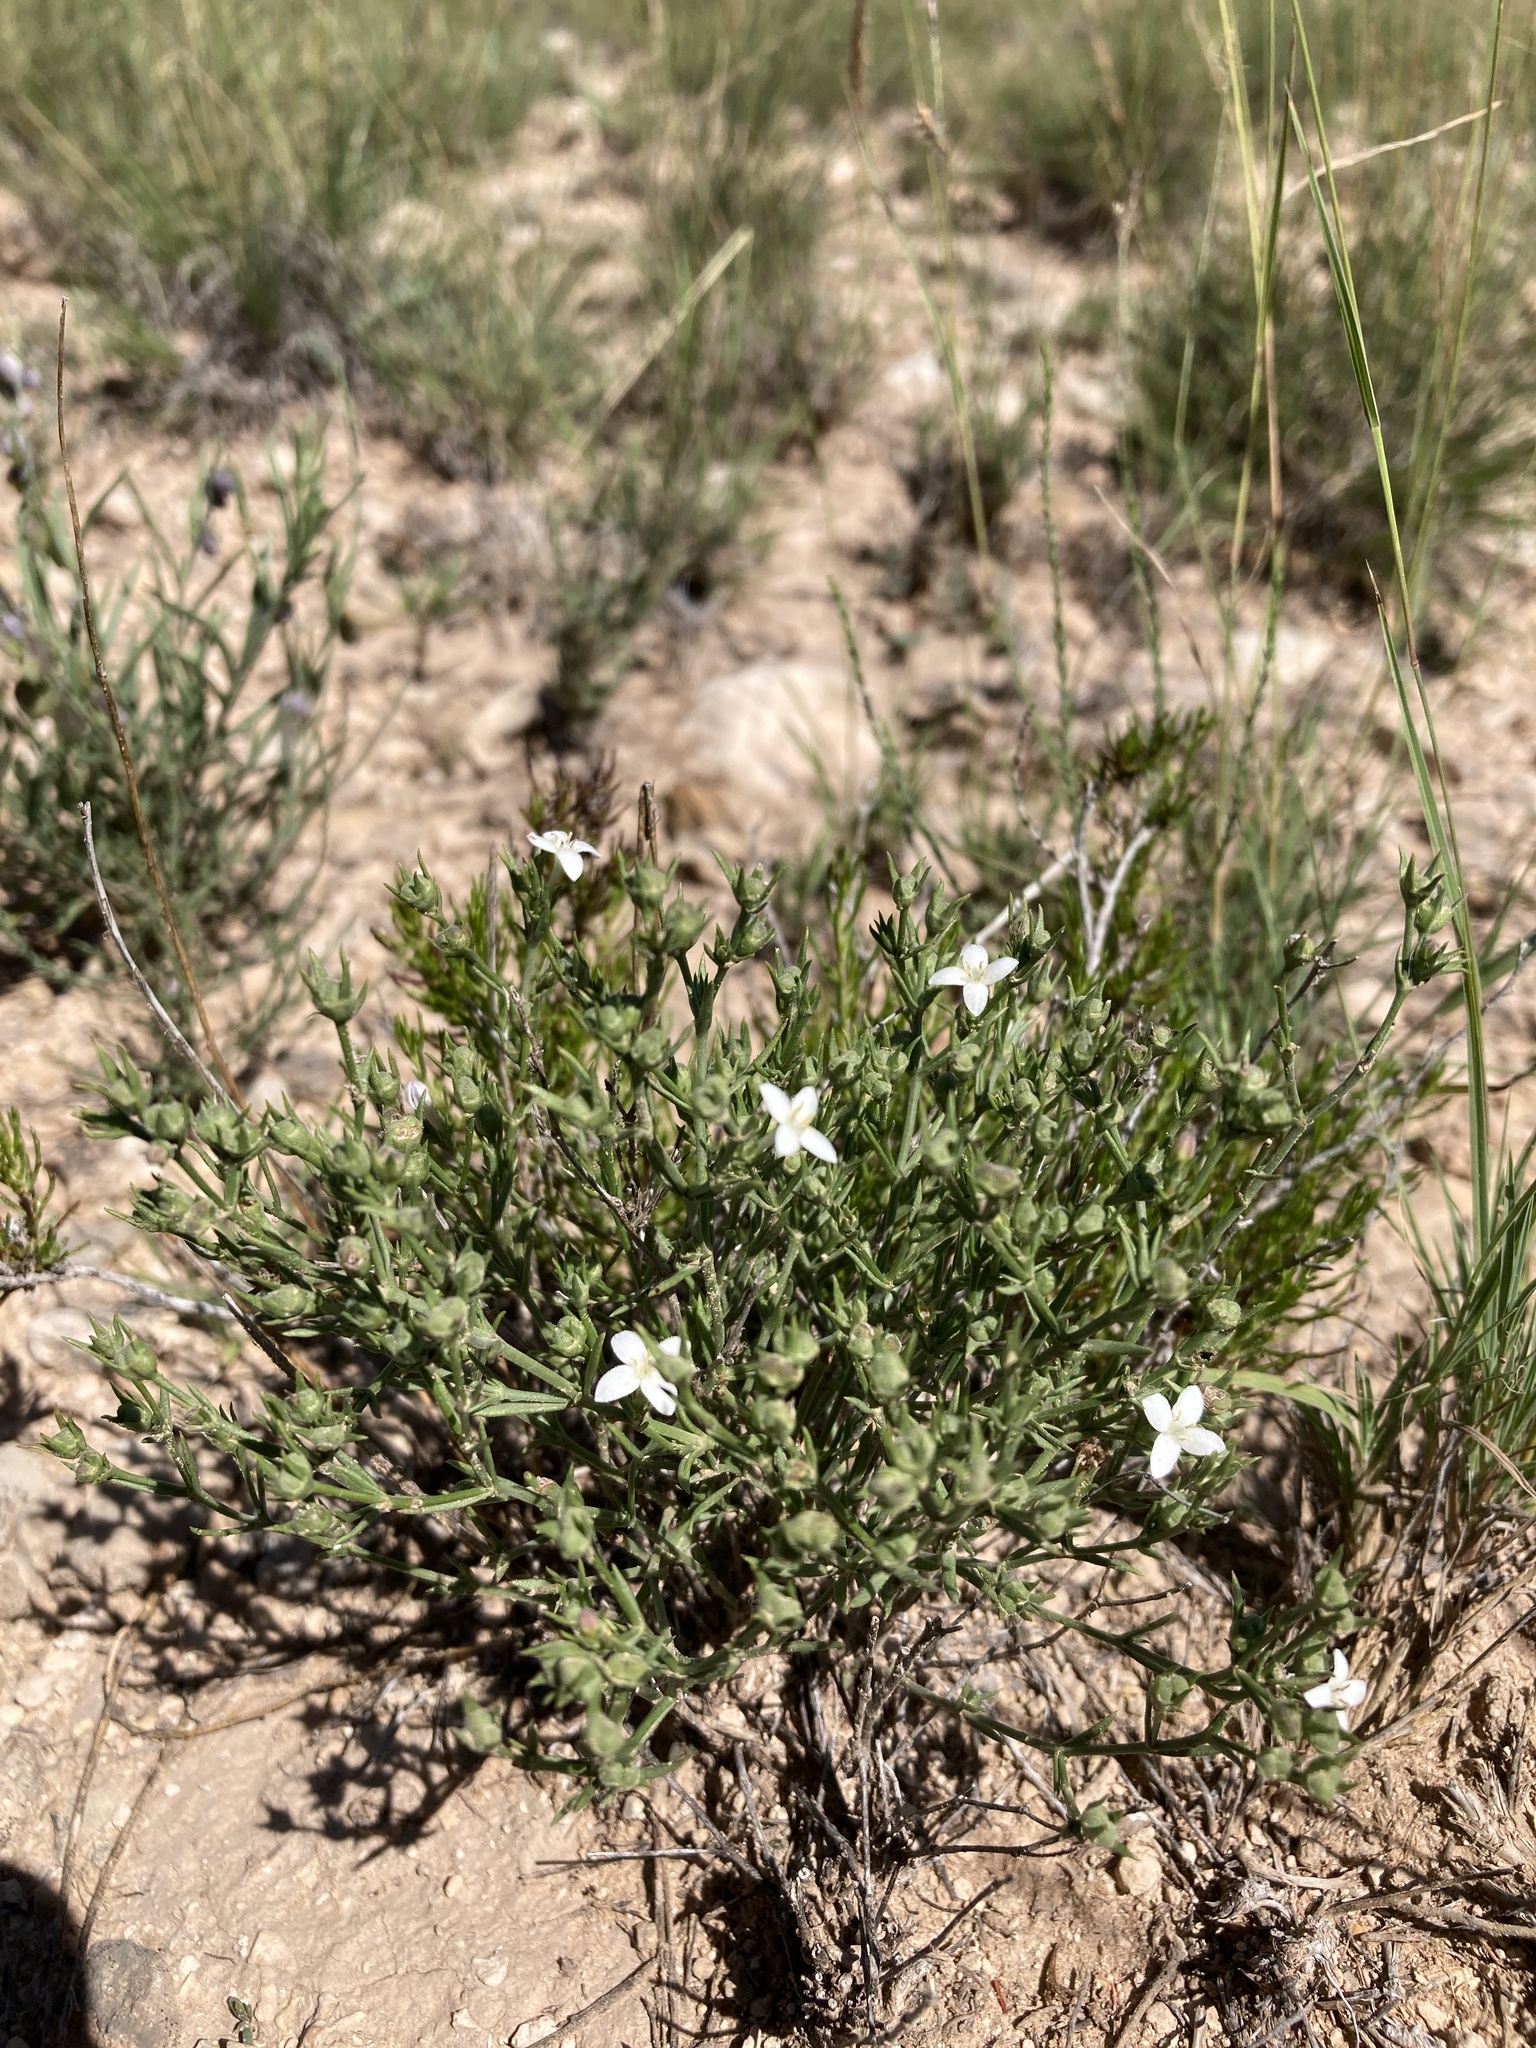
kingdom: Plantae
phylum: Tracheophyta
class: Magnoliopsida
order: Gentianales
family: Rubiaceae
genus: Houstonia
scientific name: Houstonia acerosa
